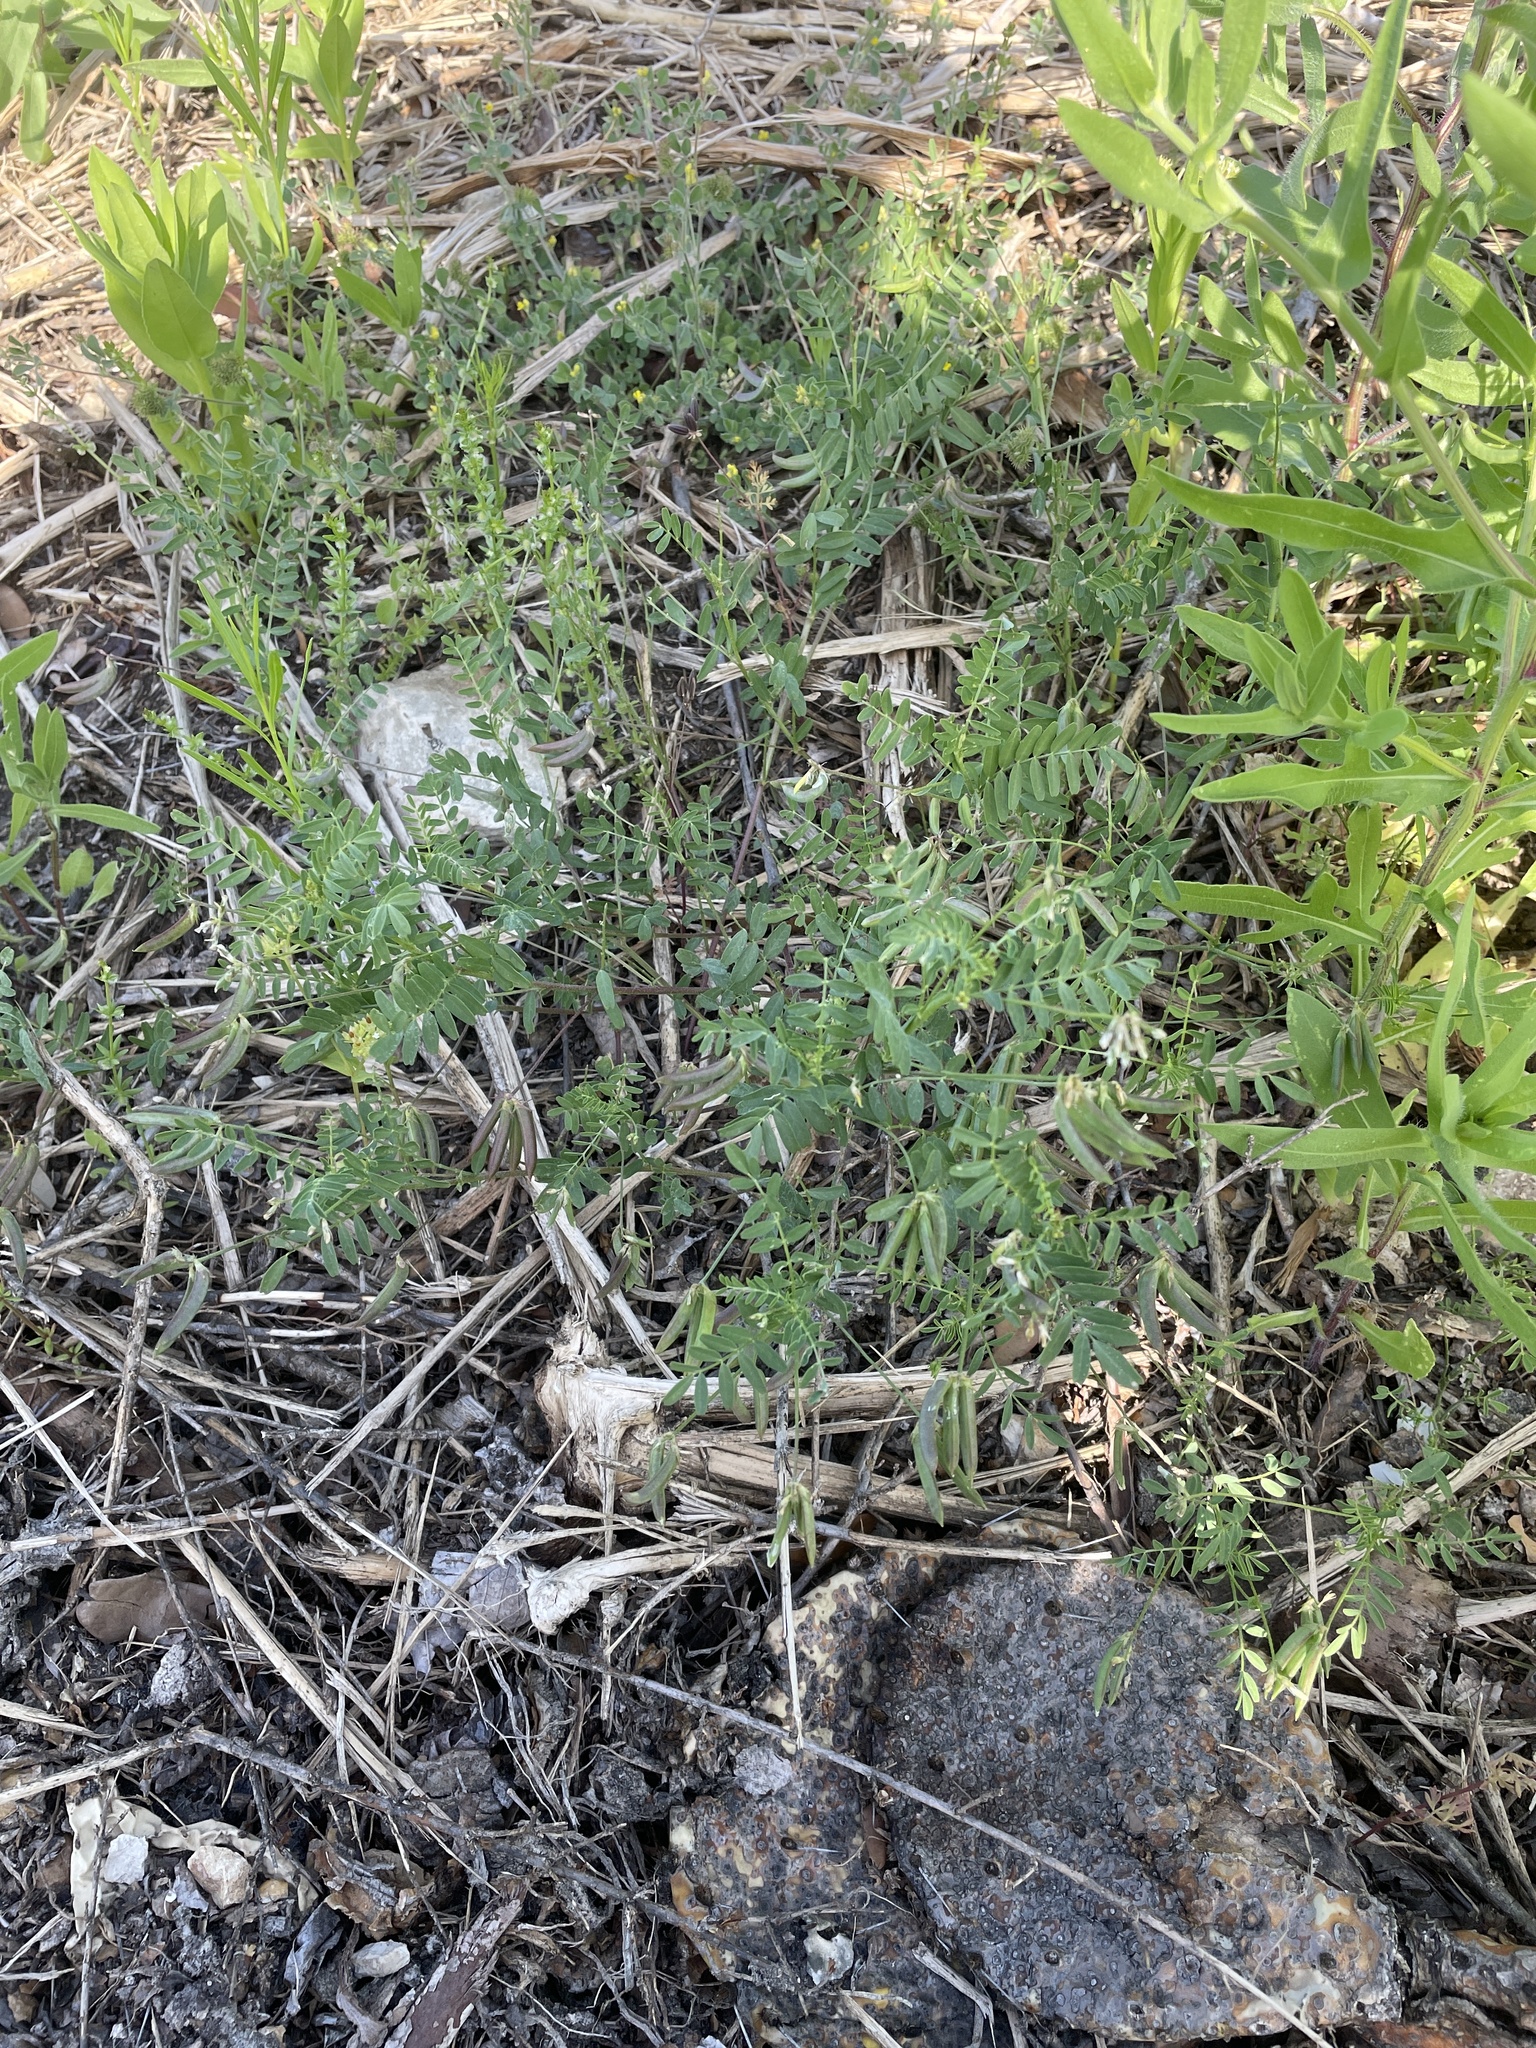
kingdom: Plantae
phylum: Tracheophyta
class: Magnoliopsida
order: Fabales
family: Fabaceae
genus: Astragalus
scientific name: Astragalus nuttallianus
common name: Smallflowered milkvetch
